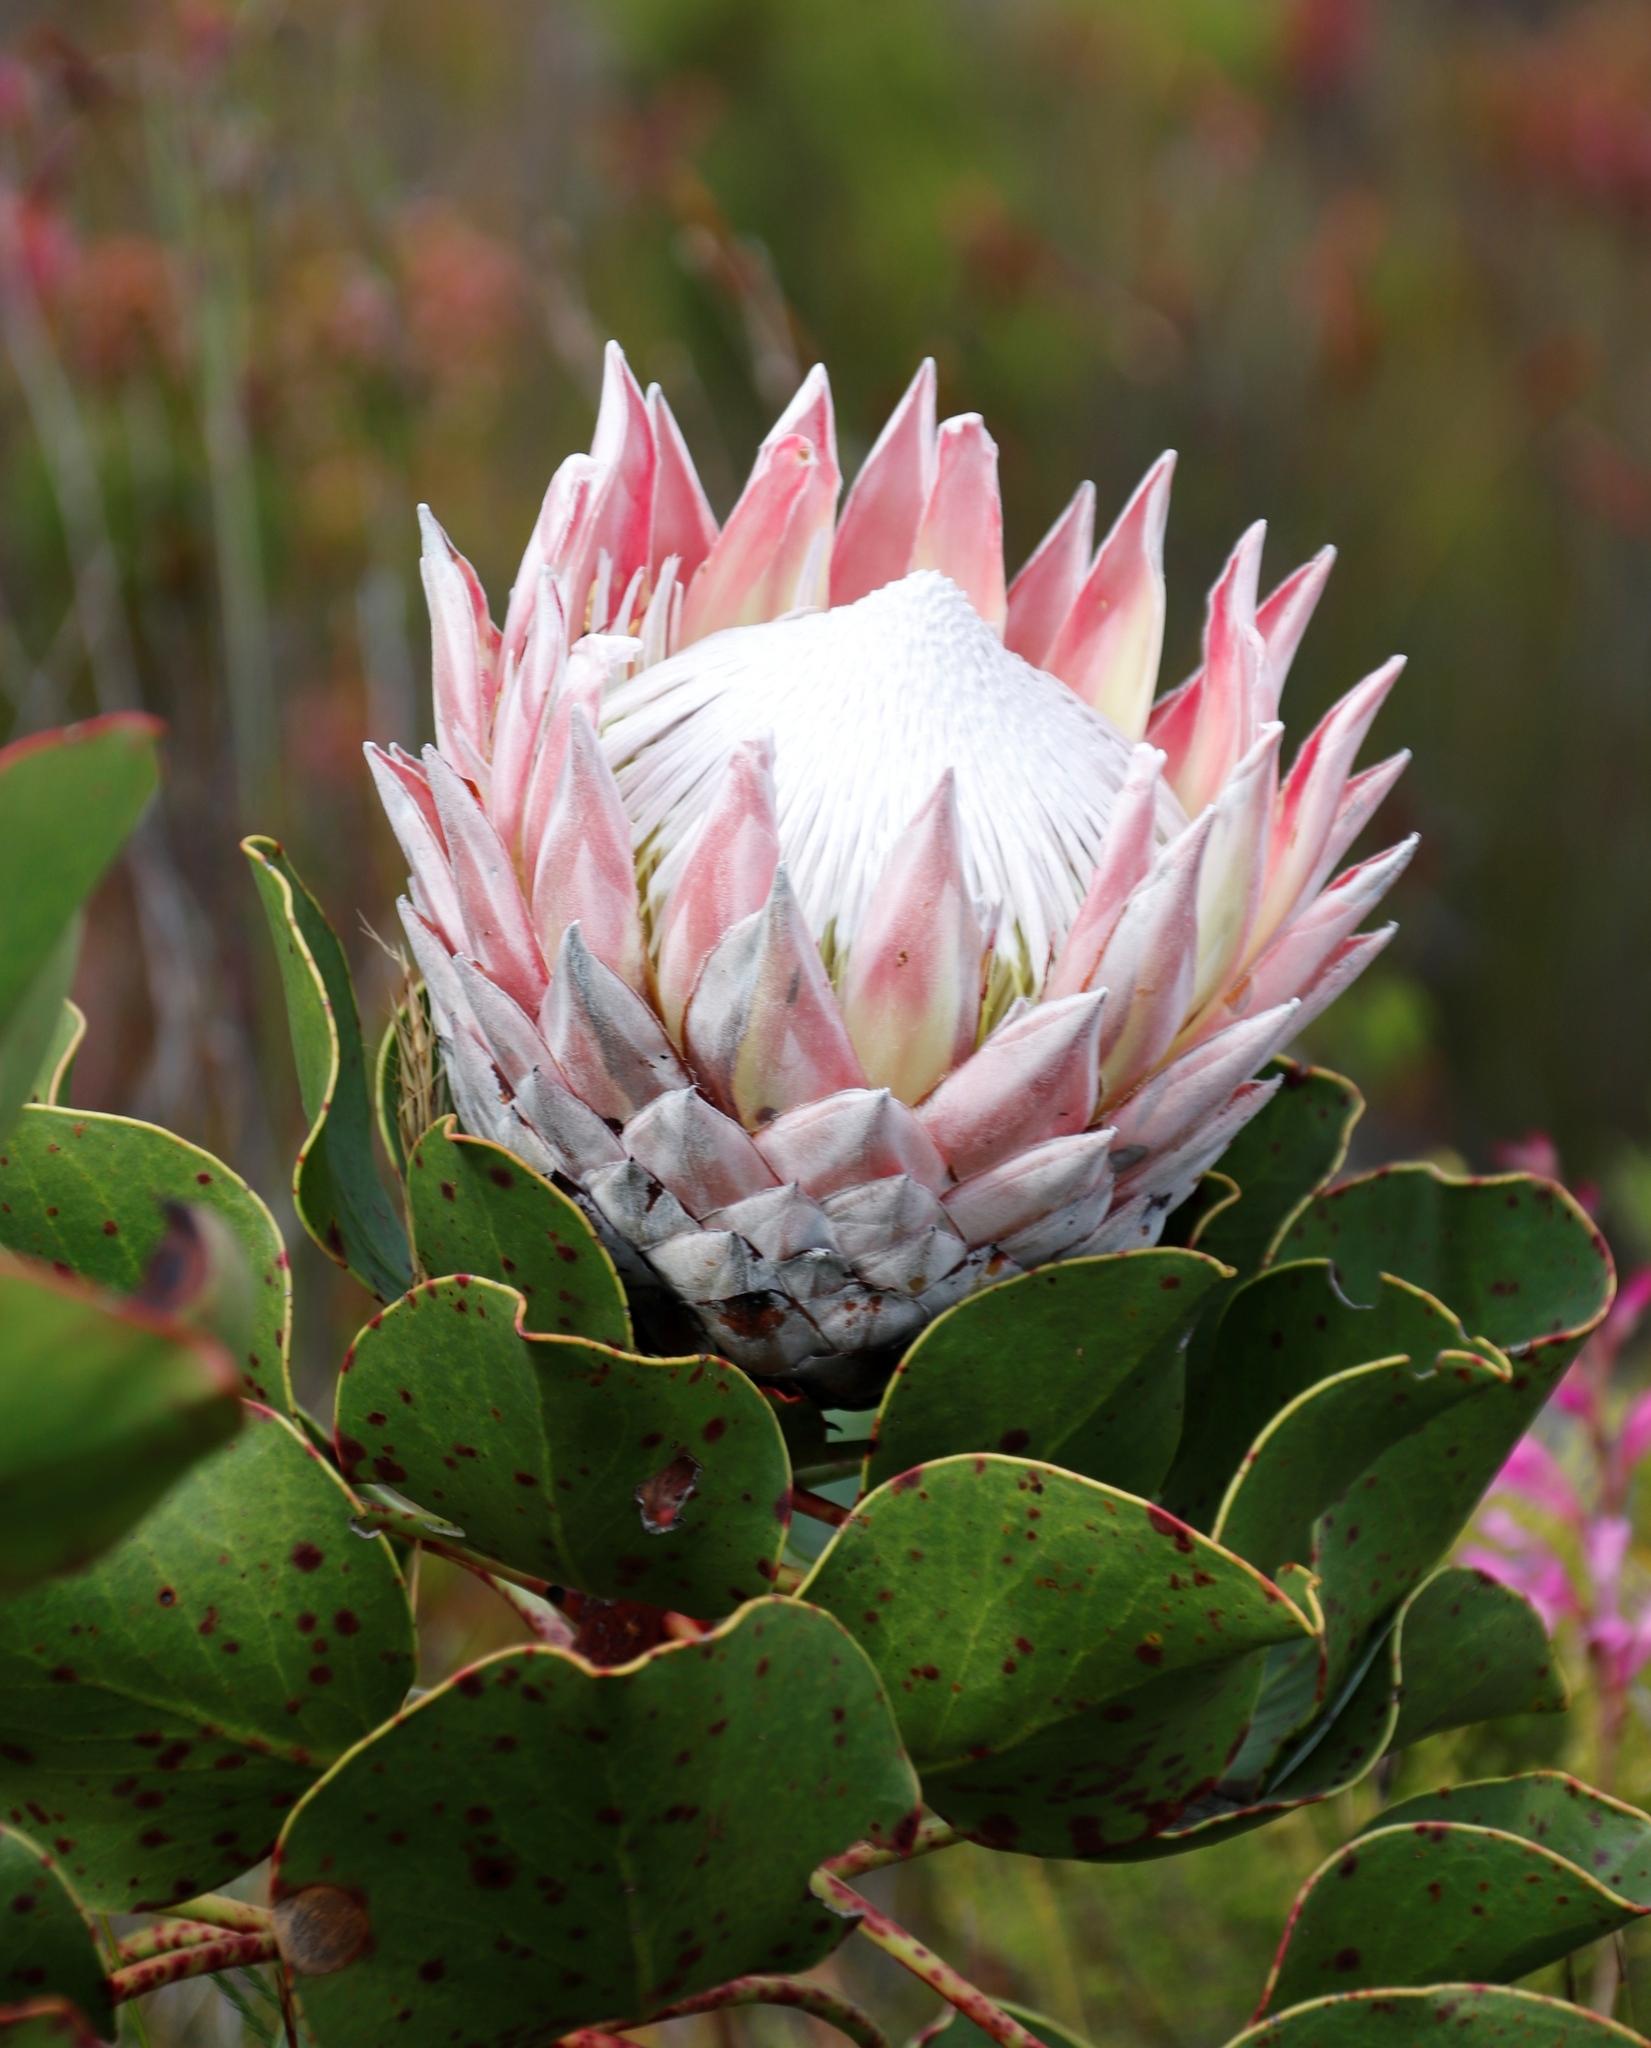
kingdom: Plantae
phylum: Tracheophyta
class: Magnoliopsida
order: Proteales
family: Proteaceae
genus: Protea
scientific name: Protea cynaroides
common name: King protea
